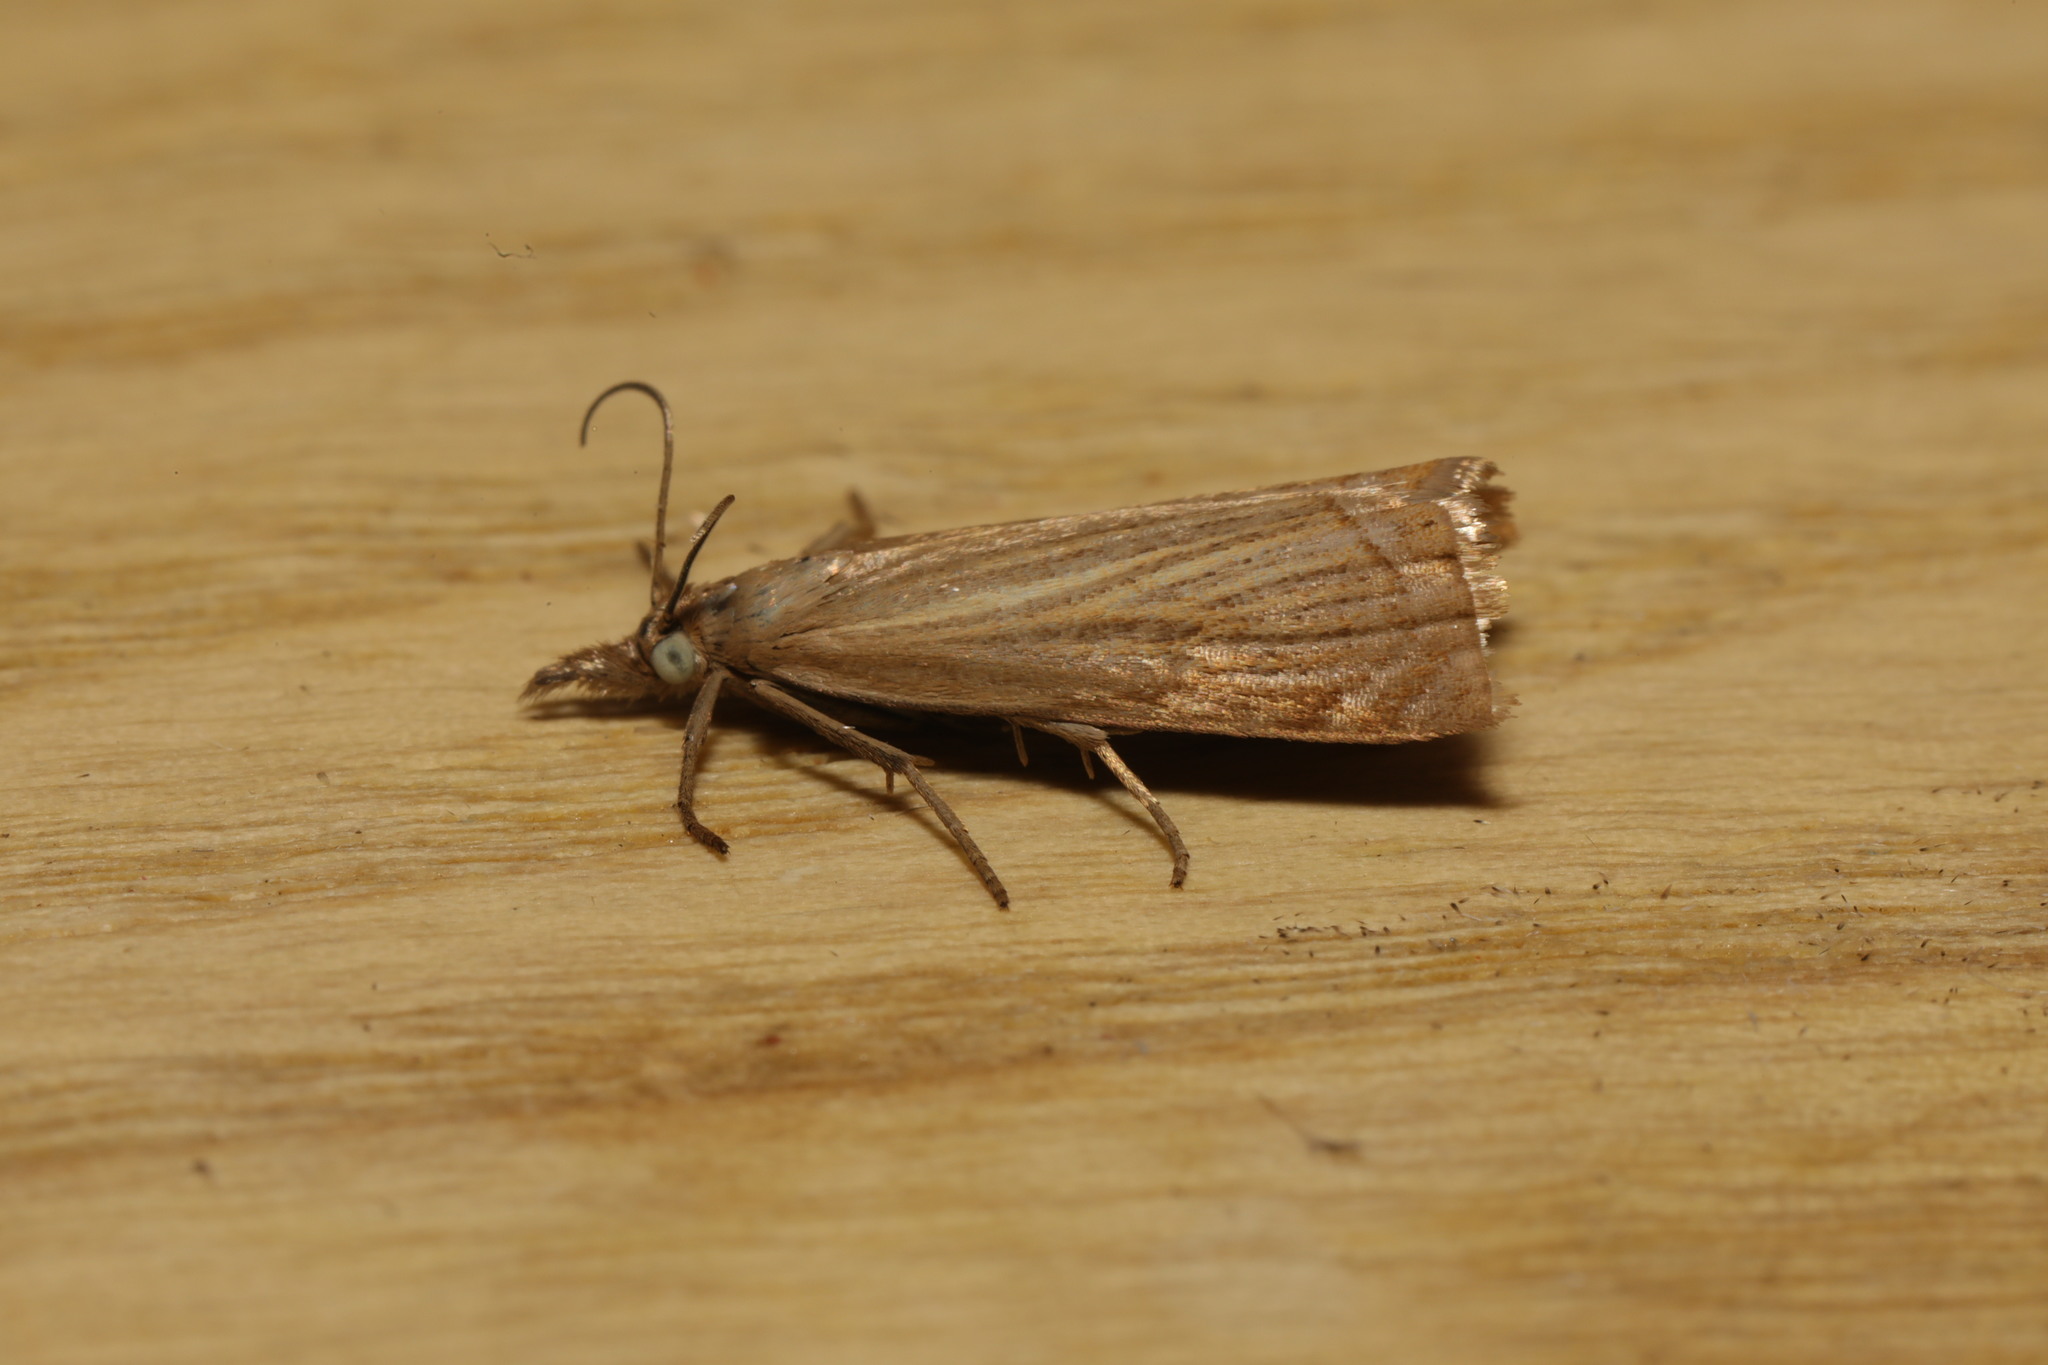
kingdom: Animalia
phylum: Arthropoda
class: Insecta
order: Lepidoptera
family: Crambidae
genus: Chrysoteuchia
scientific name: Chrysoteuchia culmella
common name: Garden grass-veneer
